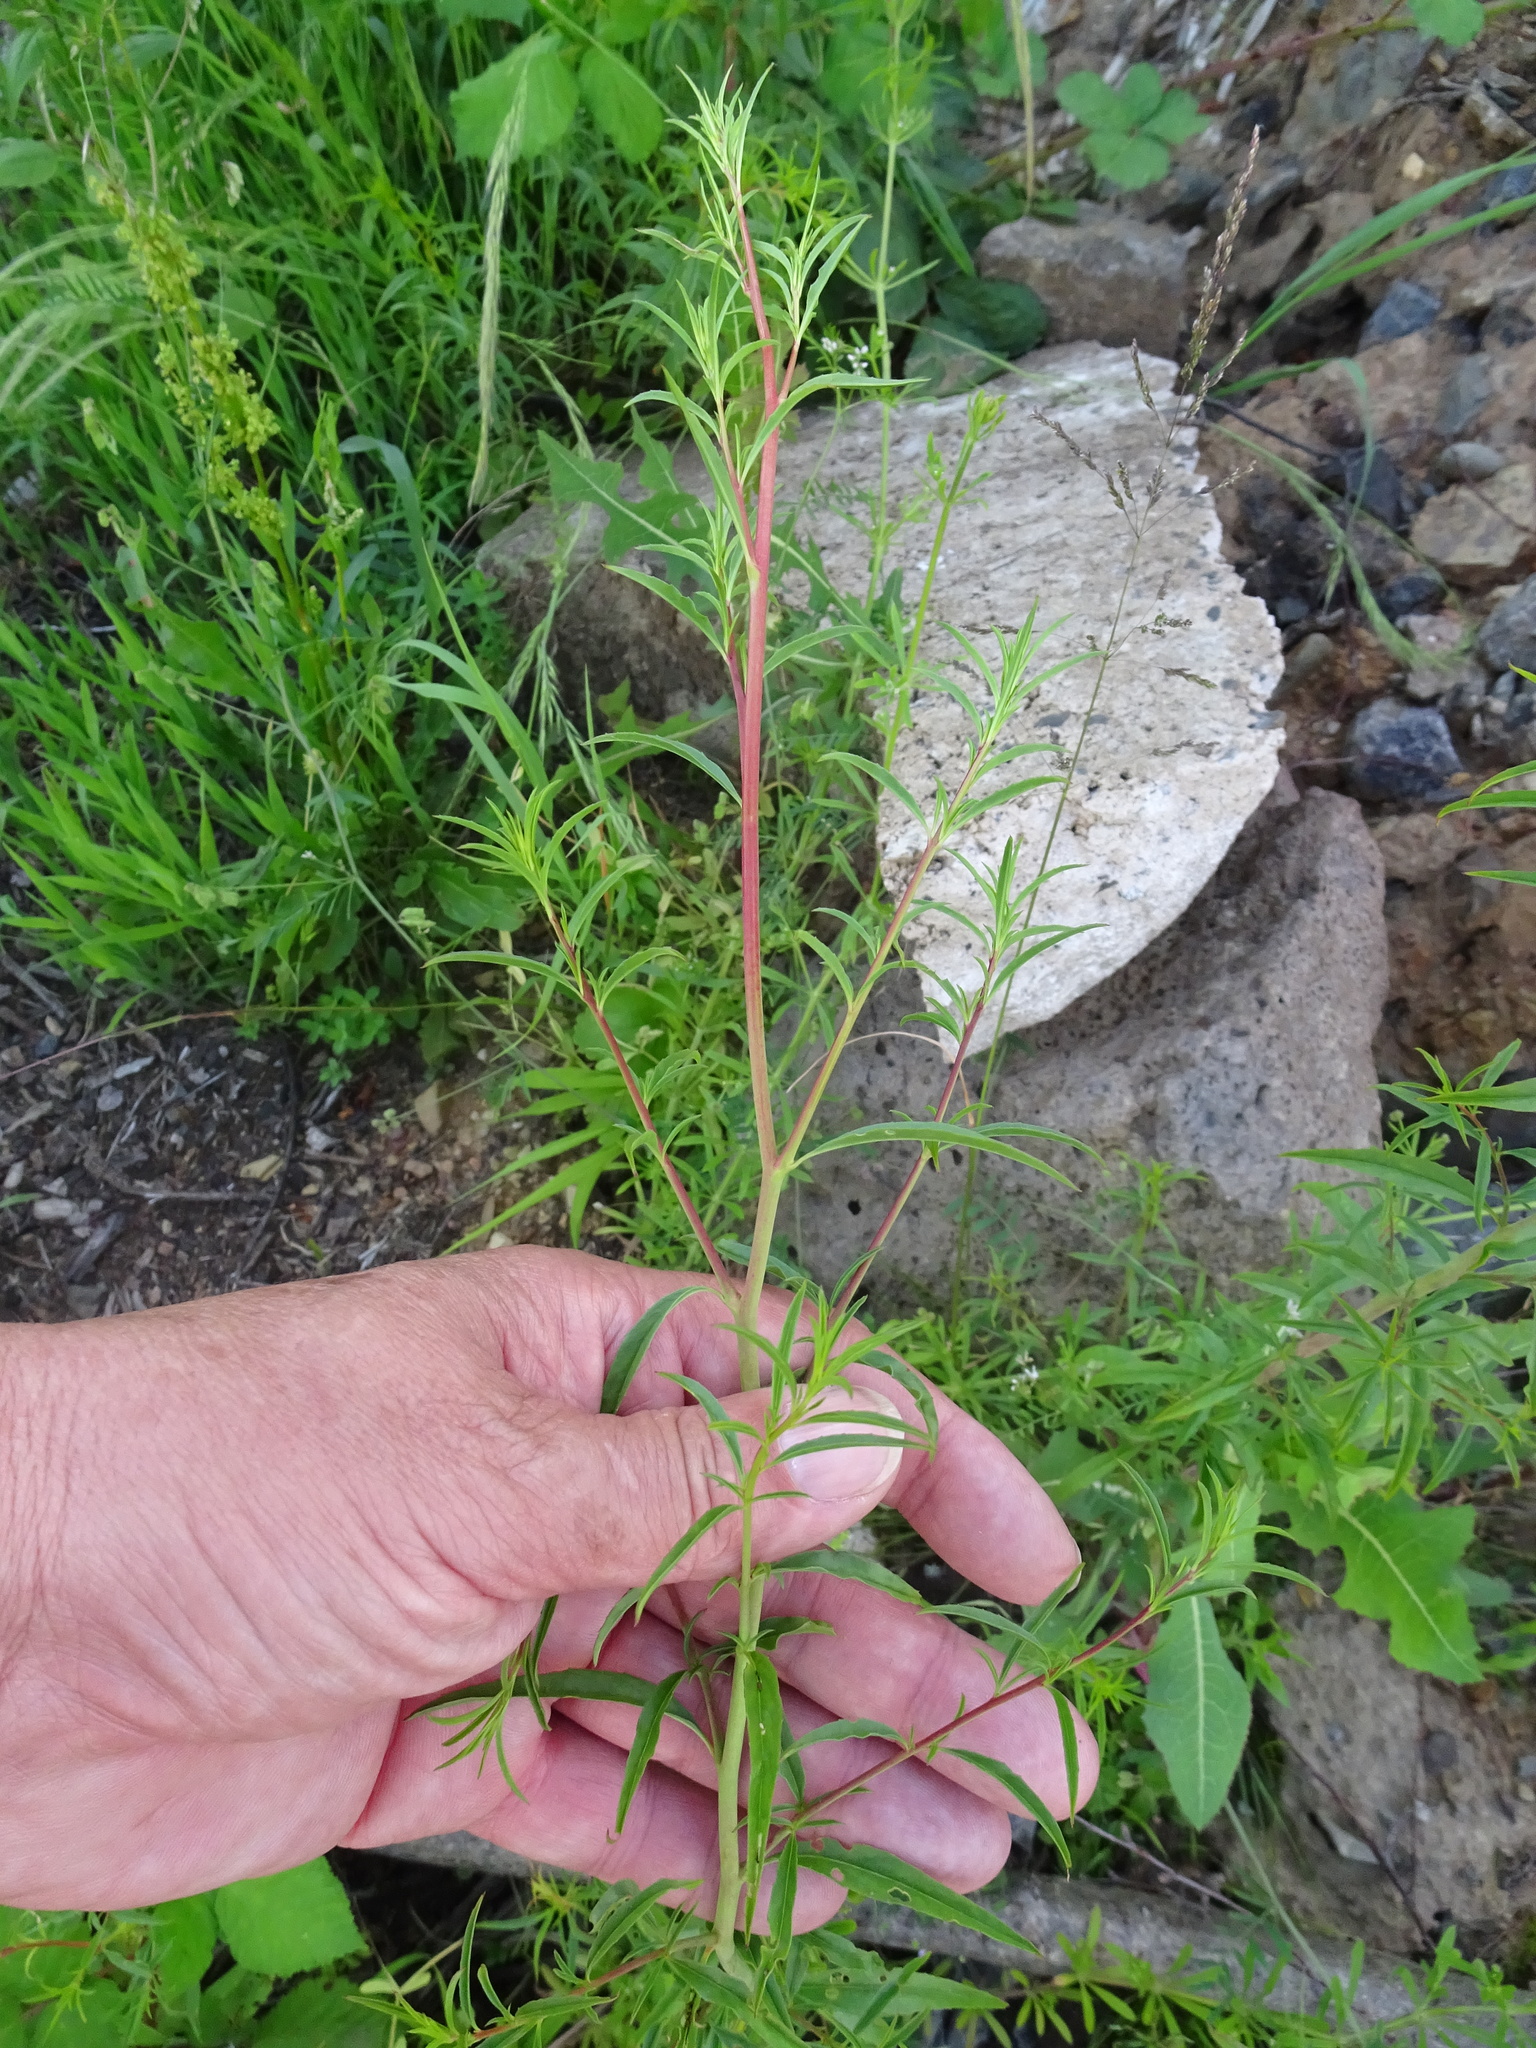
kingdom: Plantae
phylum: Tracheophyta
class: Magnoliopsida
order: Myrtales
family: Onagraceae
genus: Epilobium
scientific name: Epilobium brachycarpum
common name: Annual willowherb
